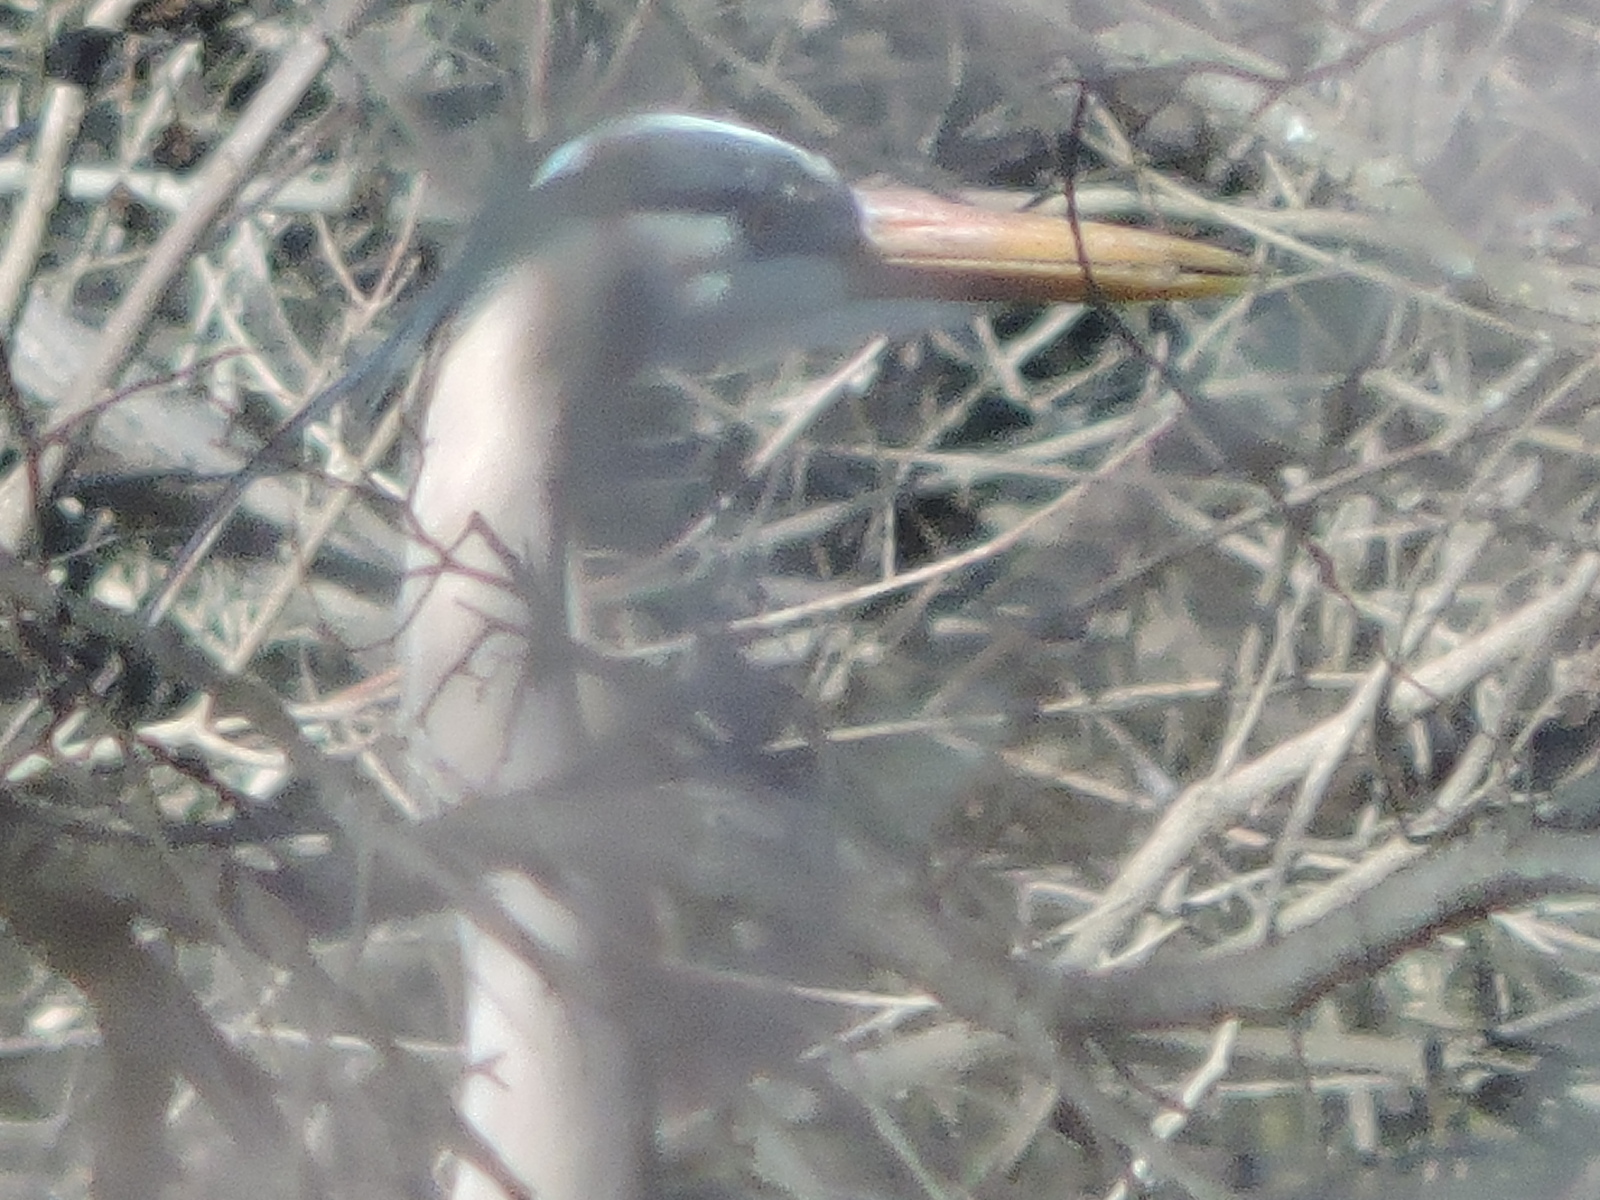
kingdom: Animalia
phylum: Chordata
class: Aves
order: Pelecaniformes
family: Ardeidae
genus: Ardea
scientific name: Ardea herodias
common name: Great blue heron
